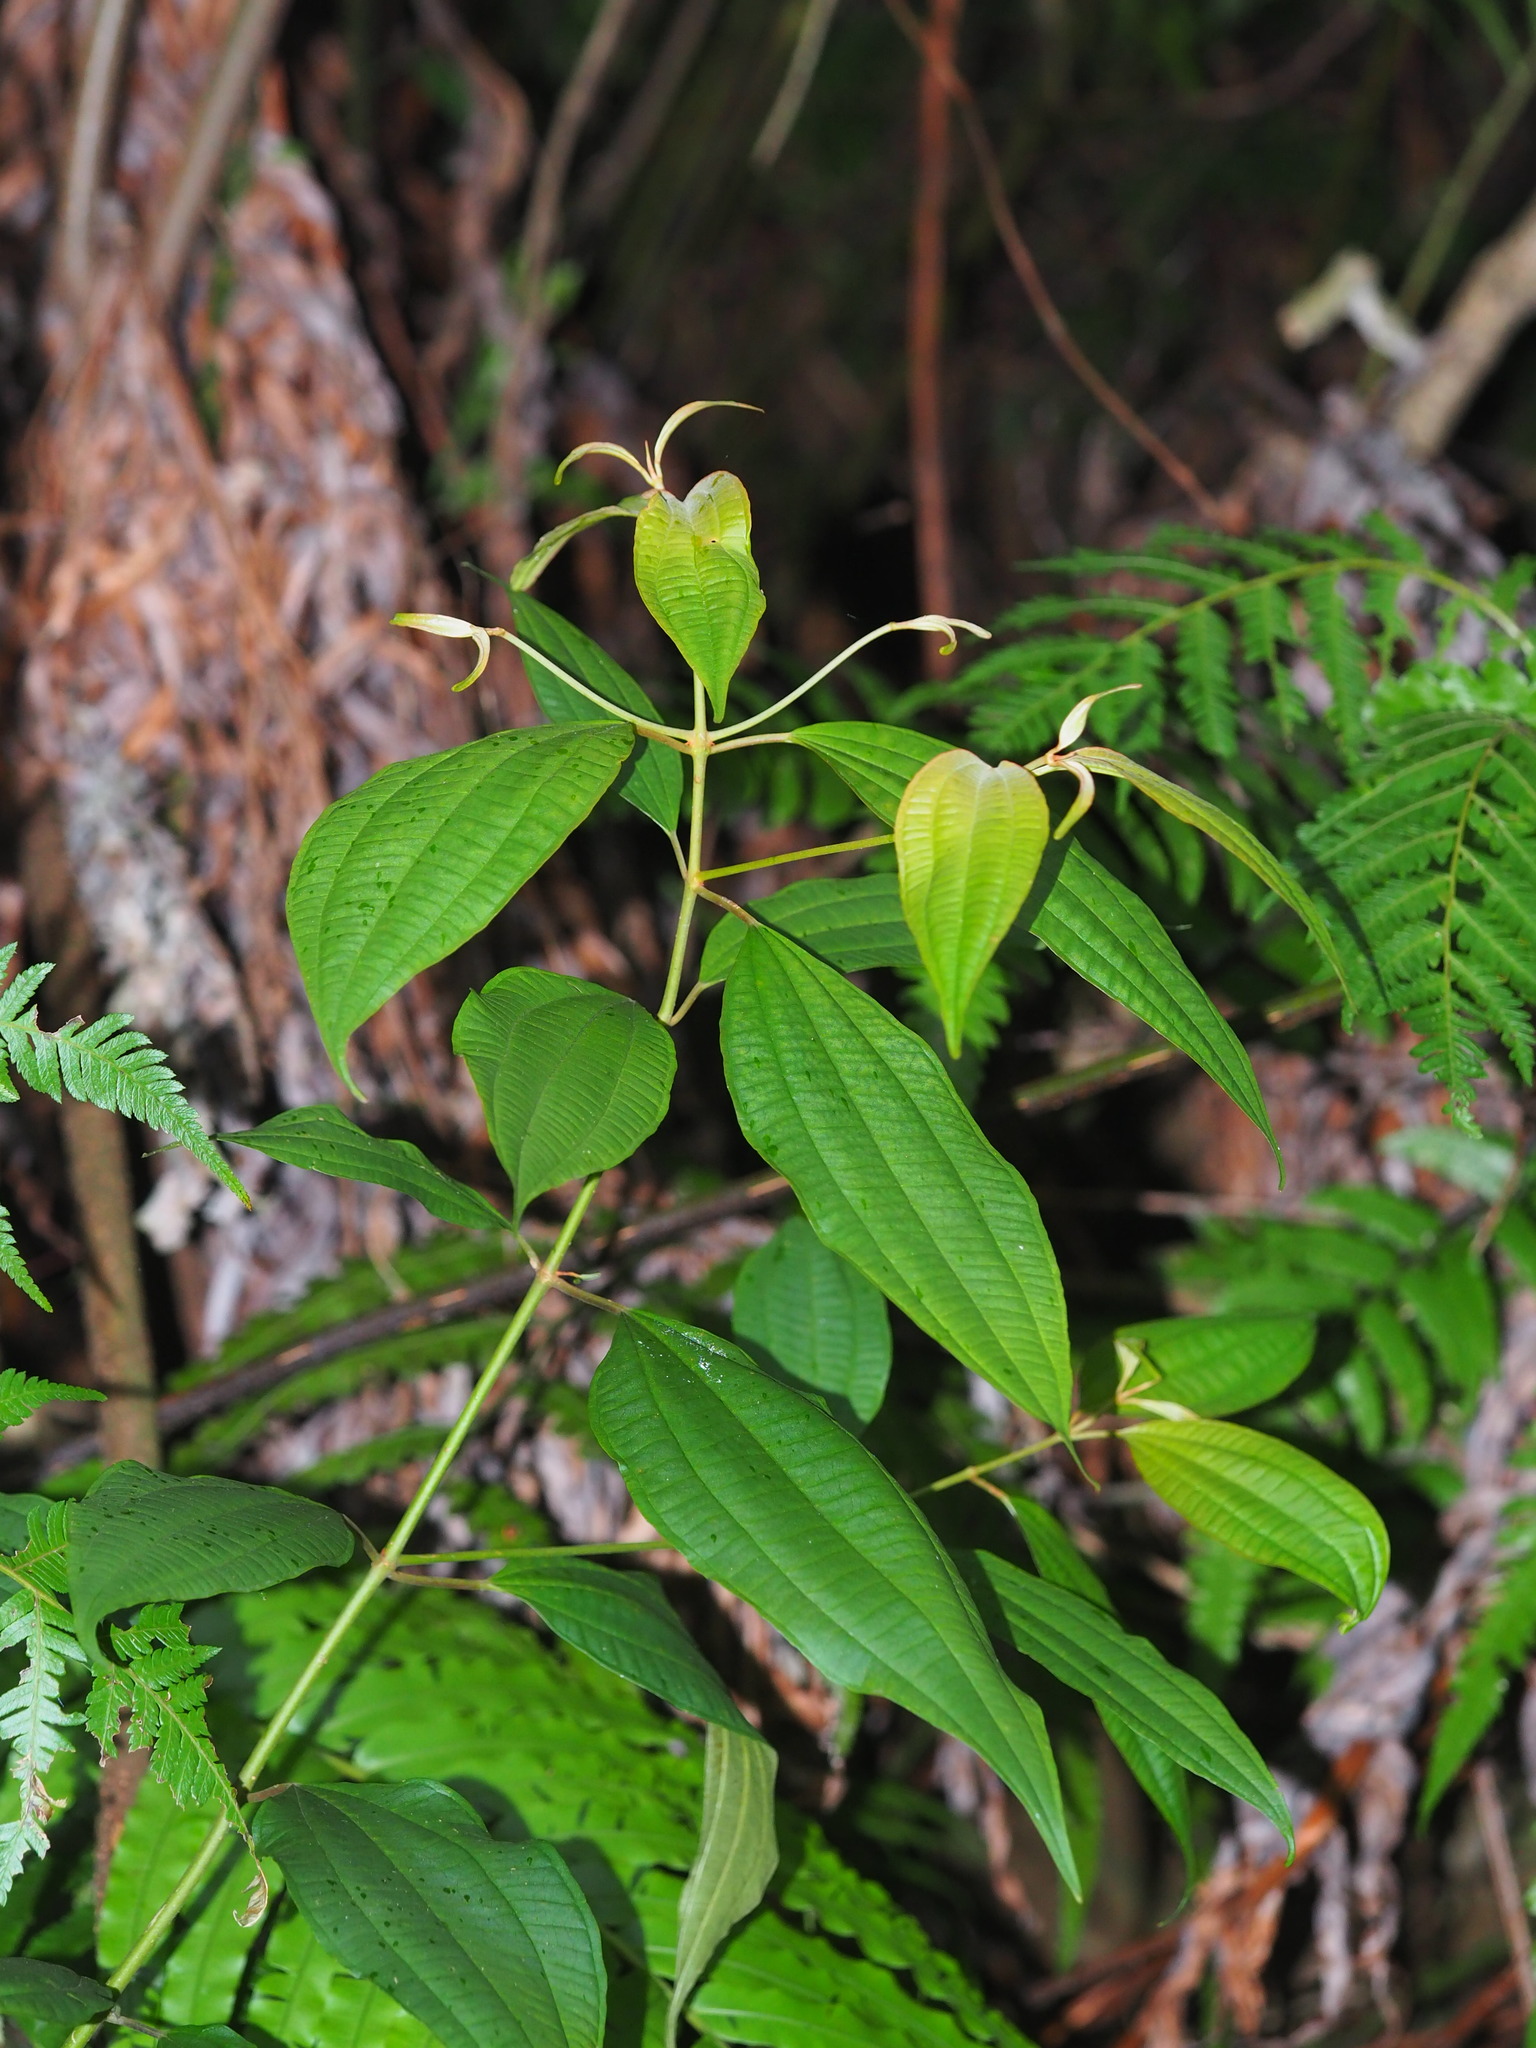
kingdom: Plantae
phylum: Tracheophyta
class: Magnoliopsida
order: Myrtales
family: Melastomataceae
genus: Blastus
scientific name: Blastus cochinchinensis
